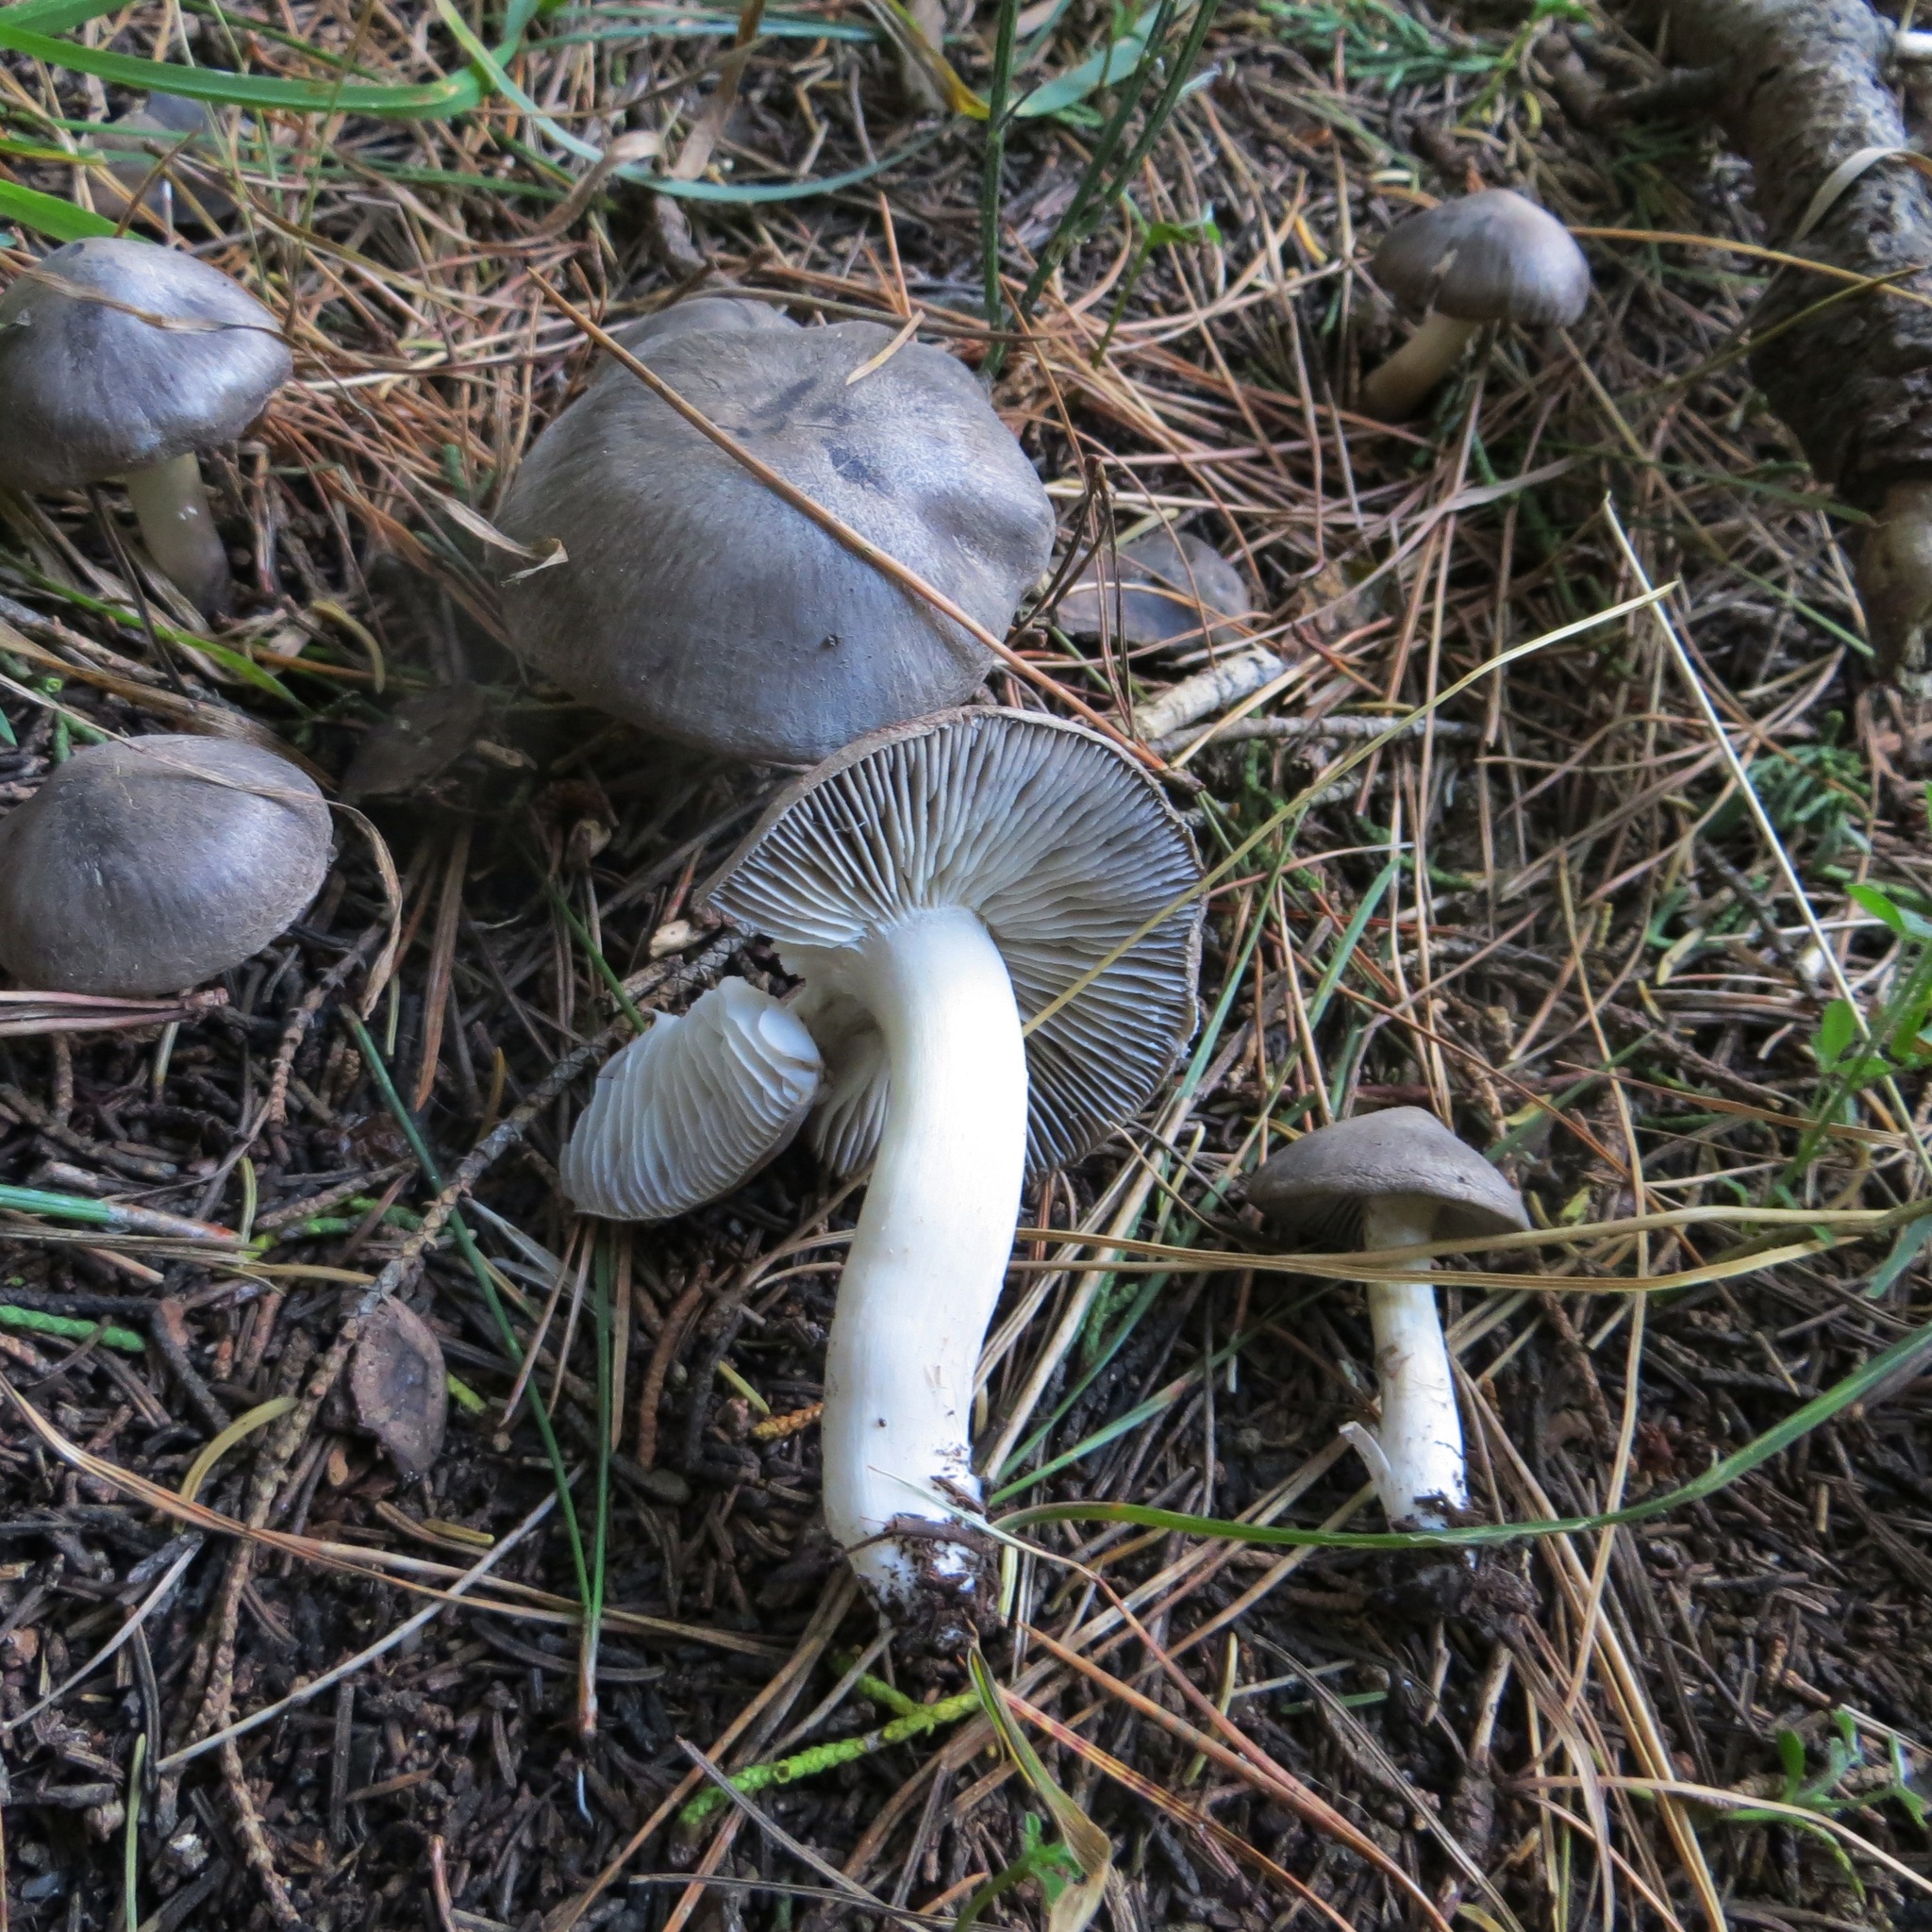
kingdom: Fungi
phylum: Basidiomycota
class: Agaricomycetes
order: Agaricales
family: Tricholomataceae
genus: Tricholoma
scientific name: Tricholoma terreum
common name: Grey knight
